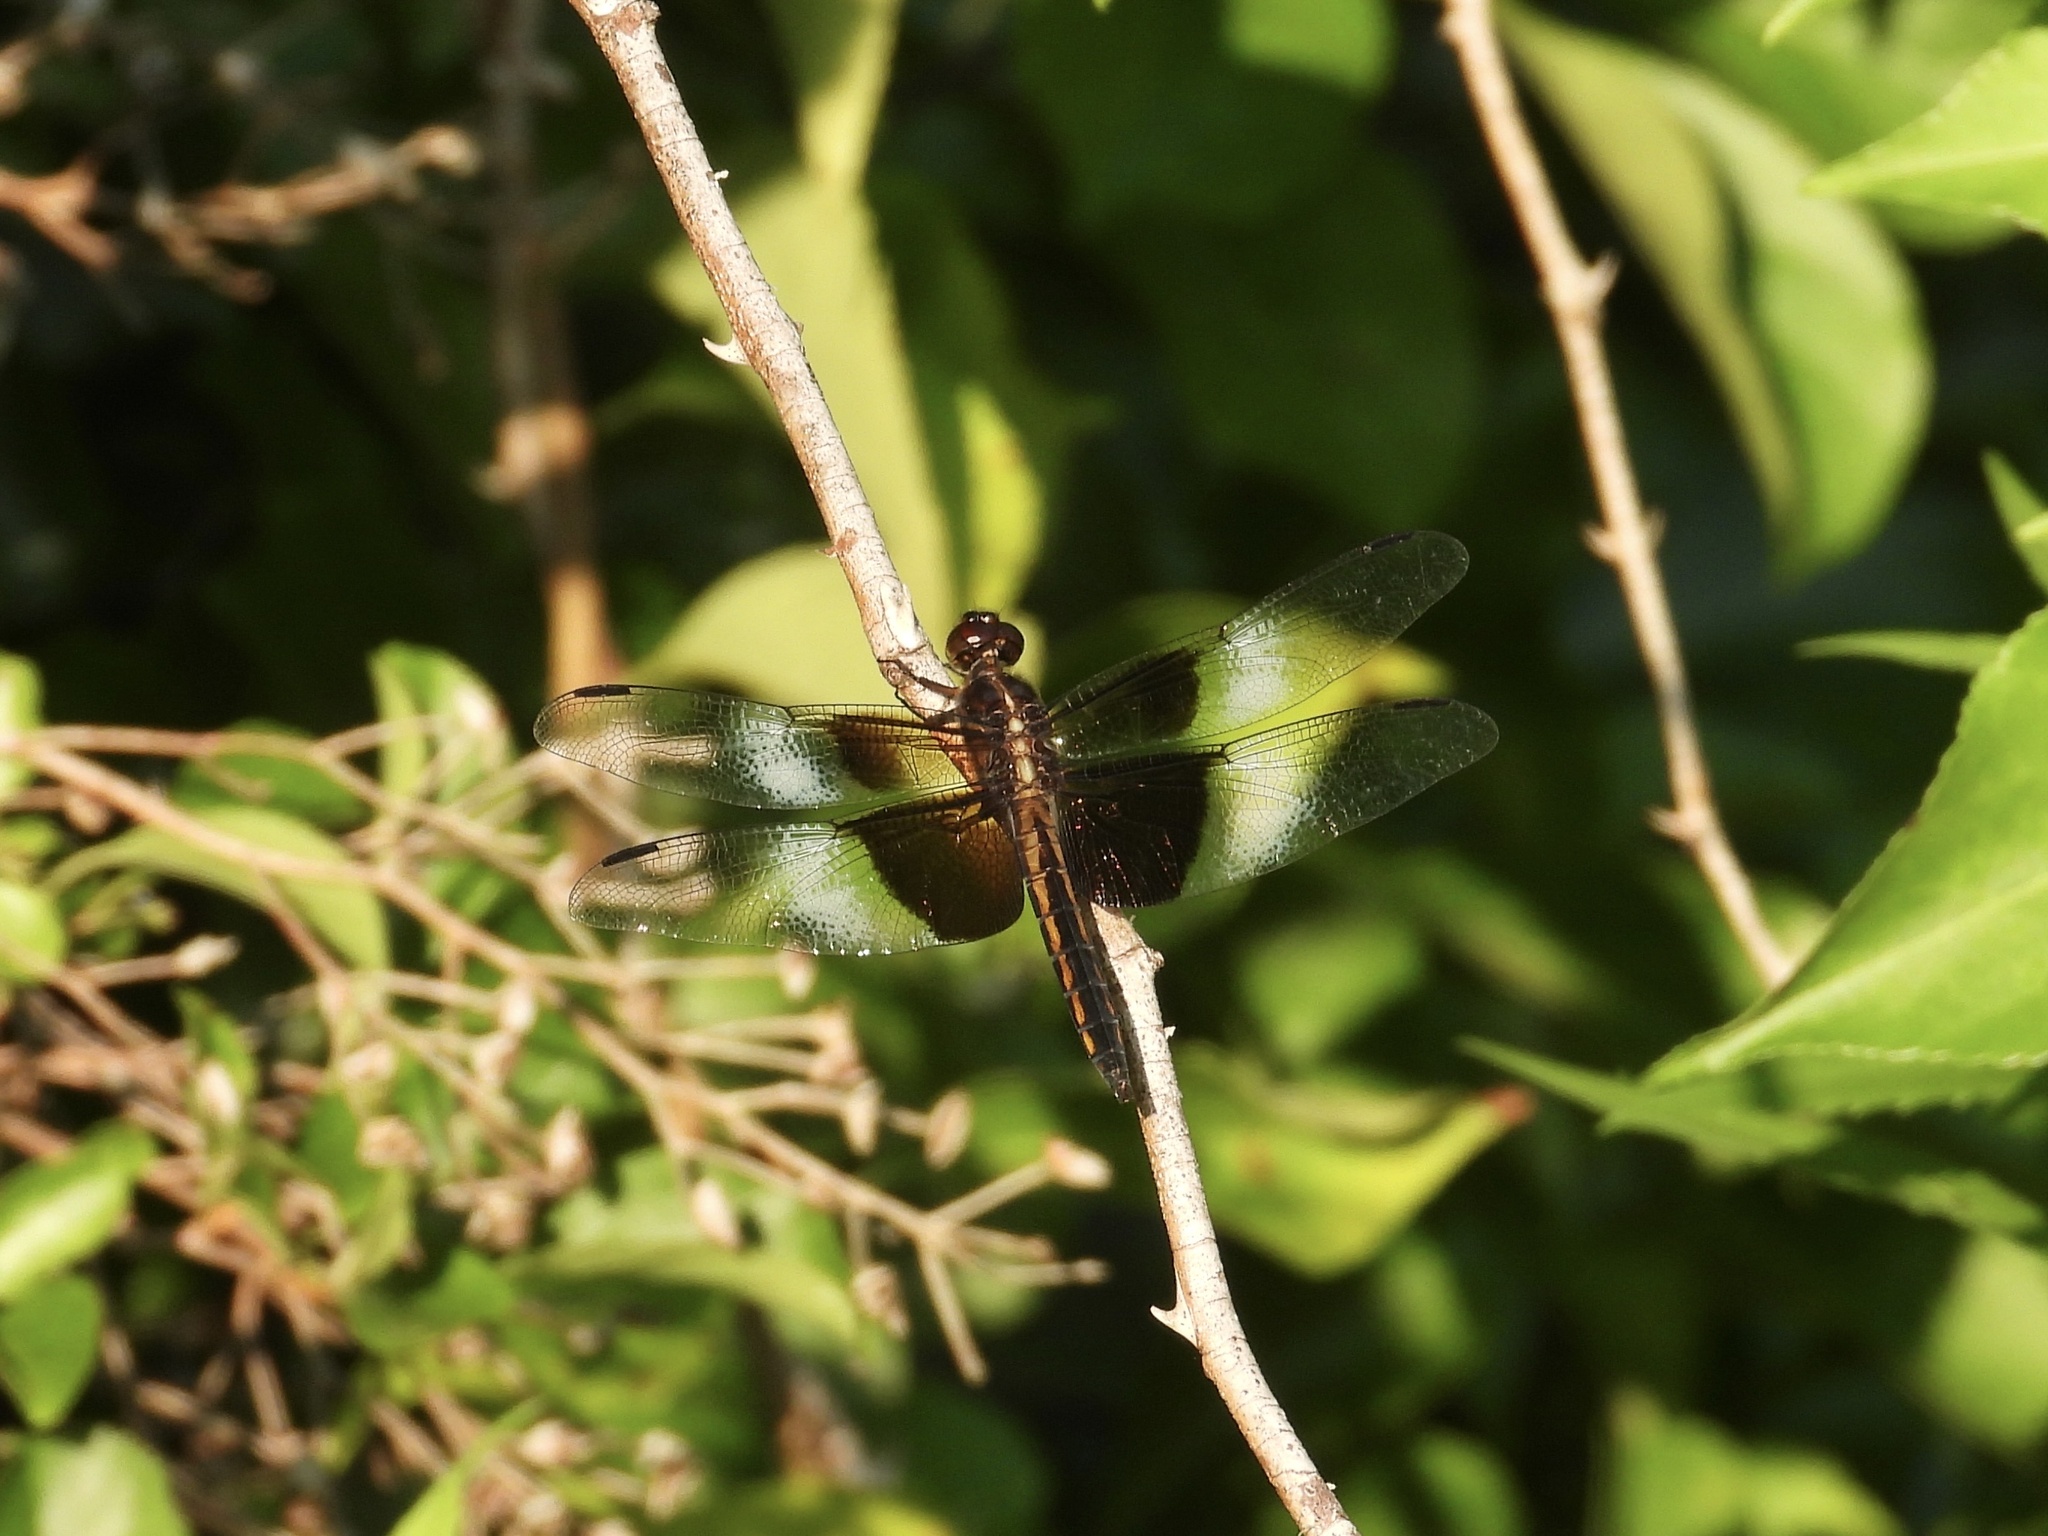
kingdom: Animalia
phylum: Arthropoda
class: Insecta
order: Odonata
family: Libellulidae
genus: Libellula
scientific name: Libellula luctuosa
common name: Widow skimmer
